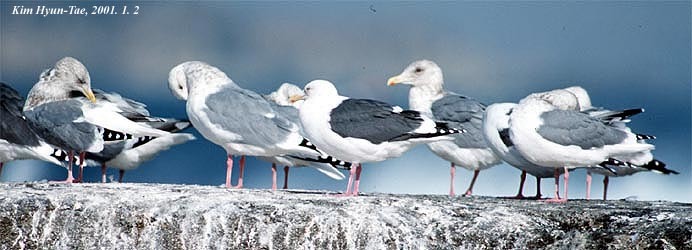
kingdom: Animalia
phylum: Chordata
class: Aves
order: Charadriiformes
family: Laridae
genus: Larus
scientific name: Larus schistisagus
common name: Slaty-backed gull
